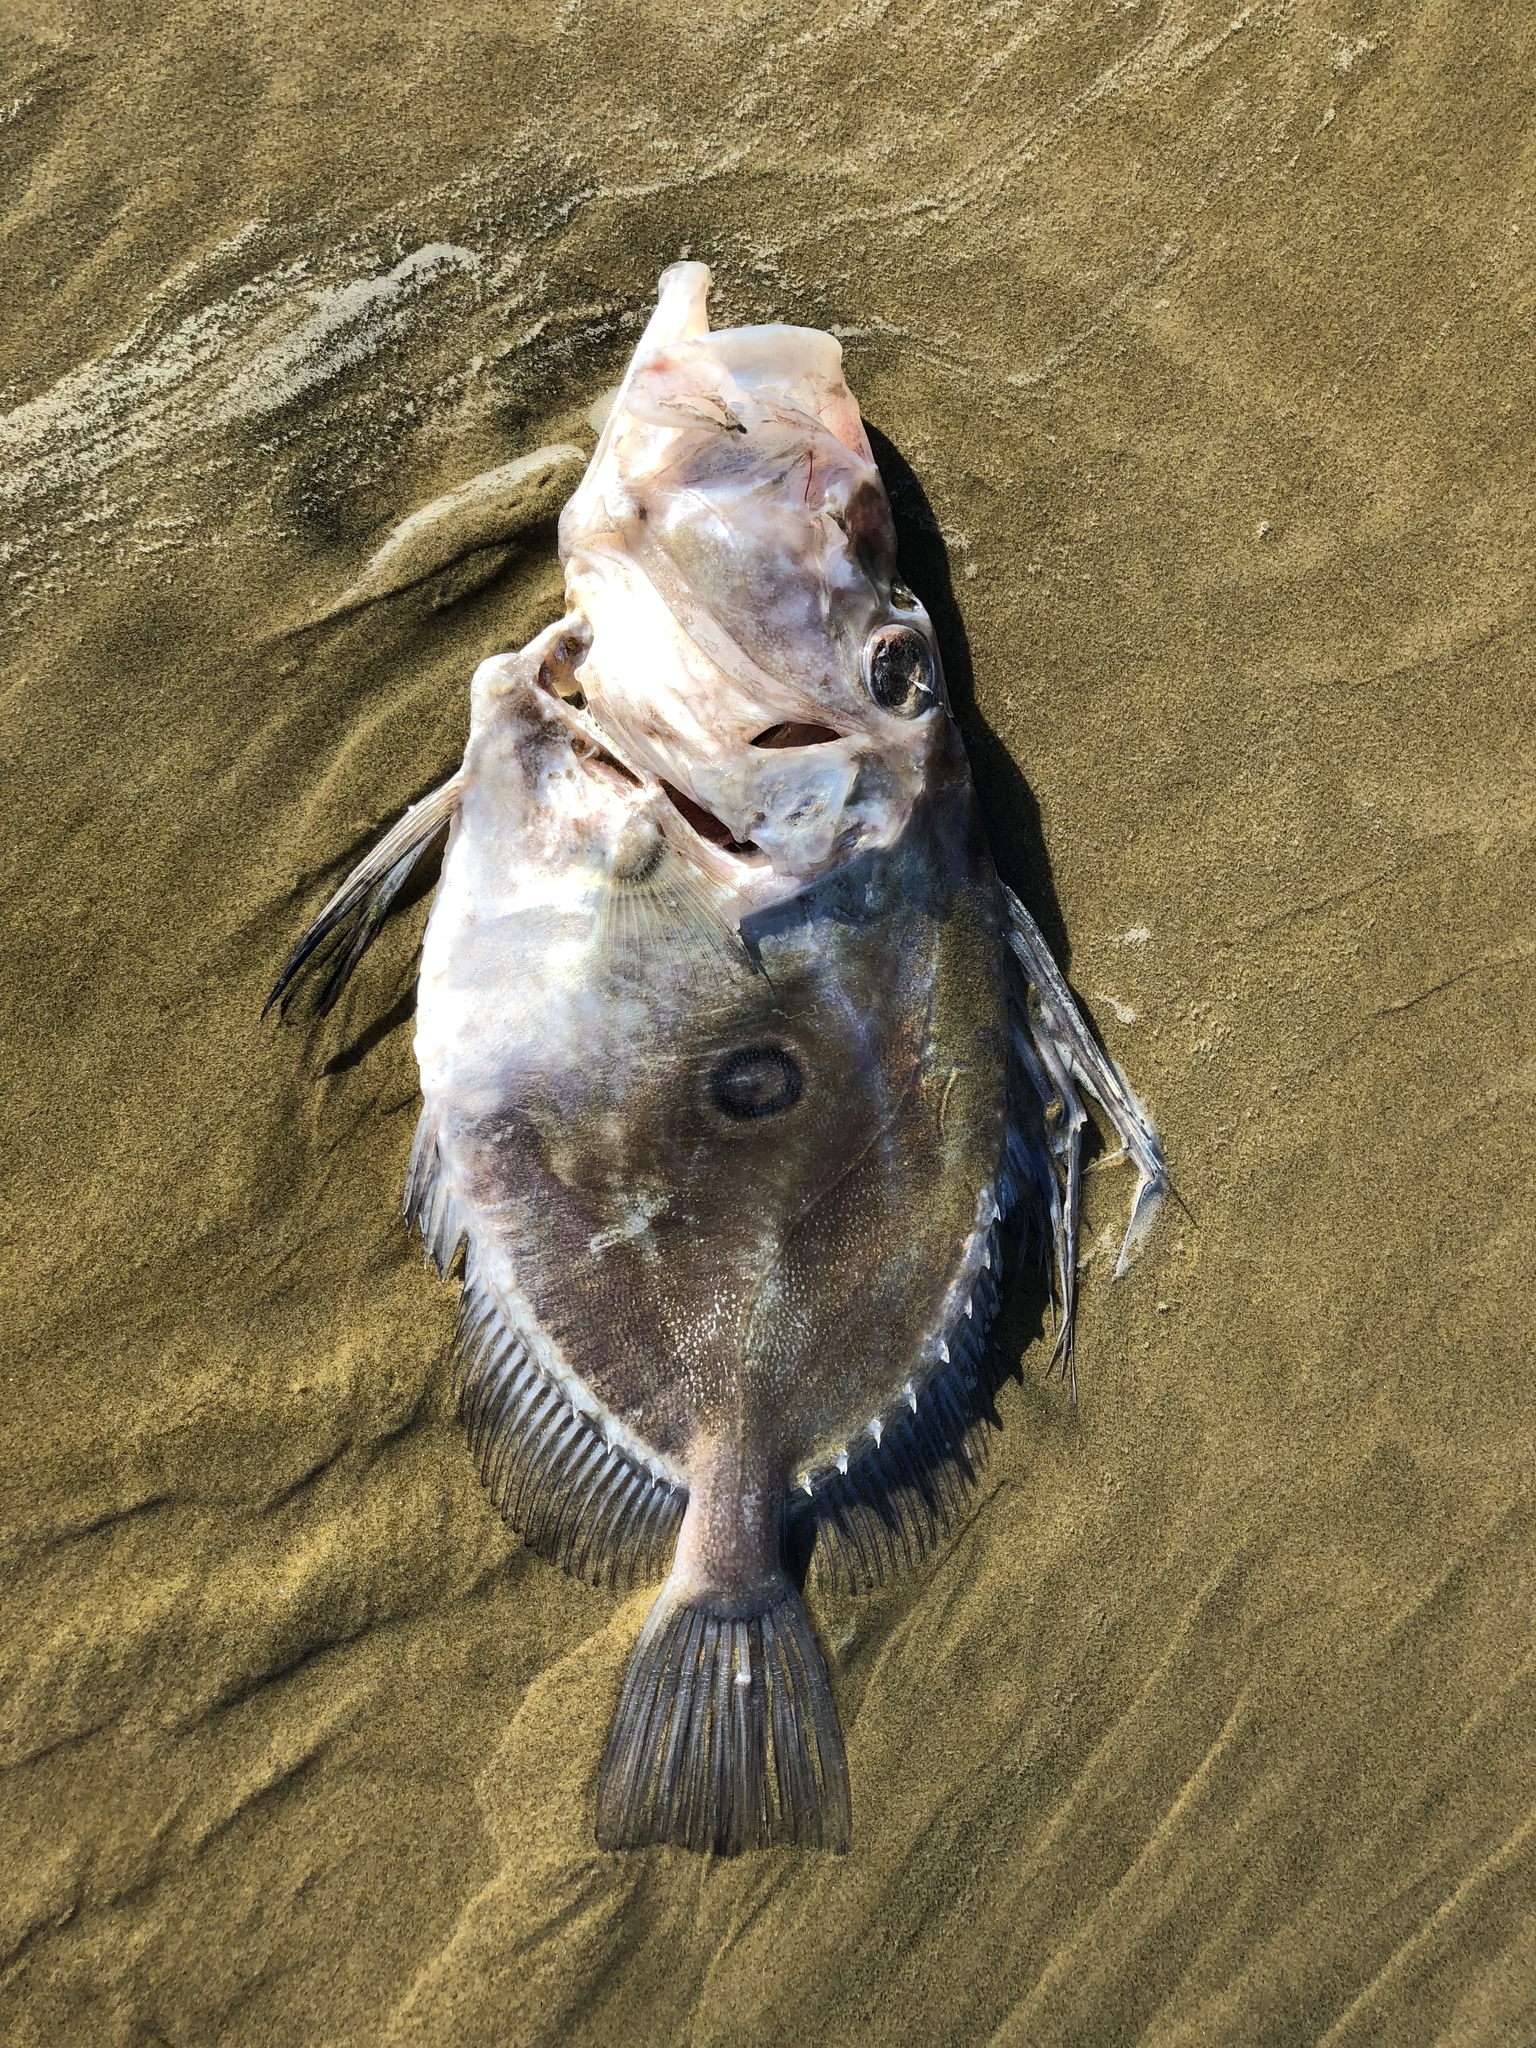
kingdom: Animalia
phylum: Chordata
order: Zeiformes
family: Zeidae
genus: Zeus
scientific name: Zeus faber
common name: John dory
